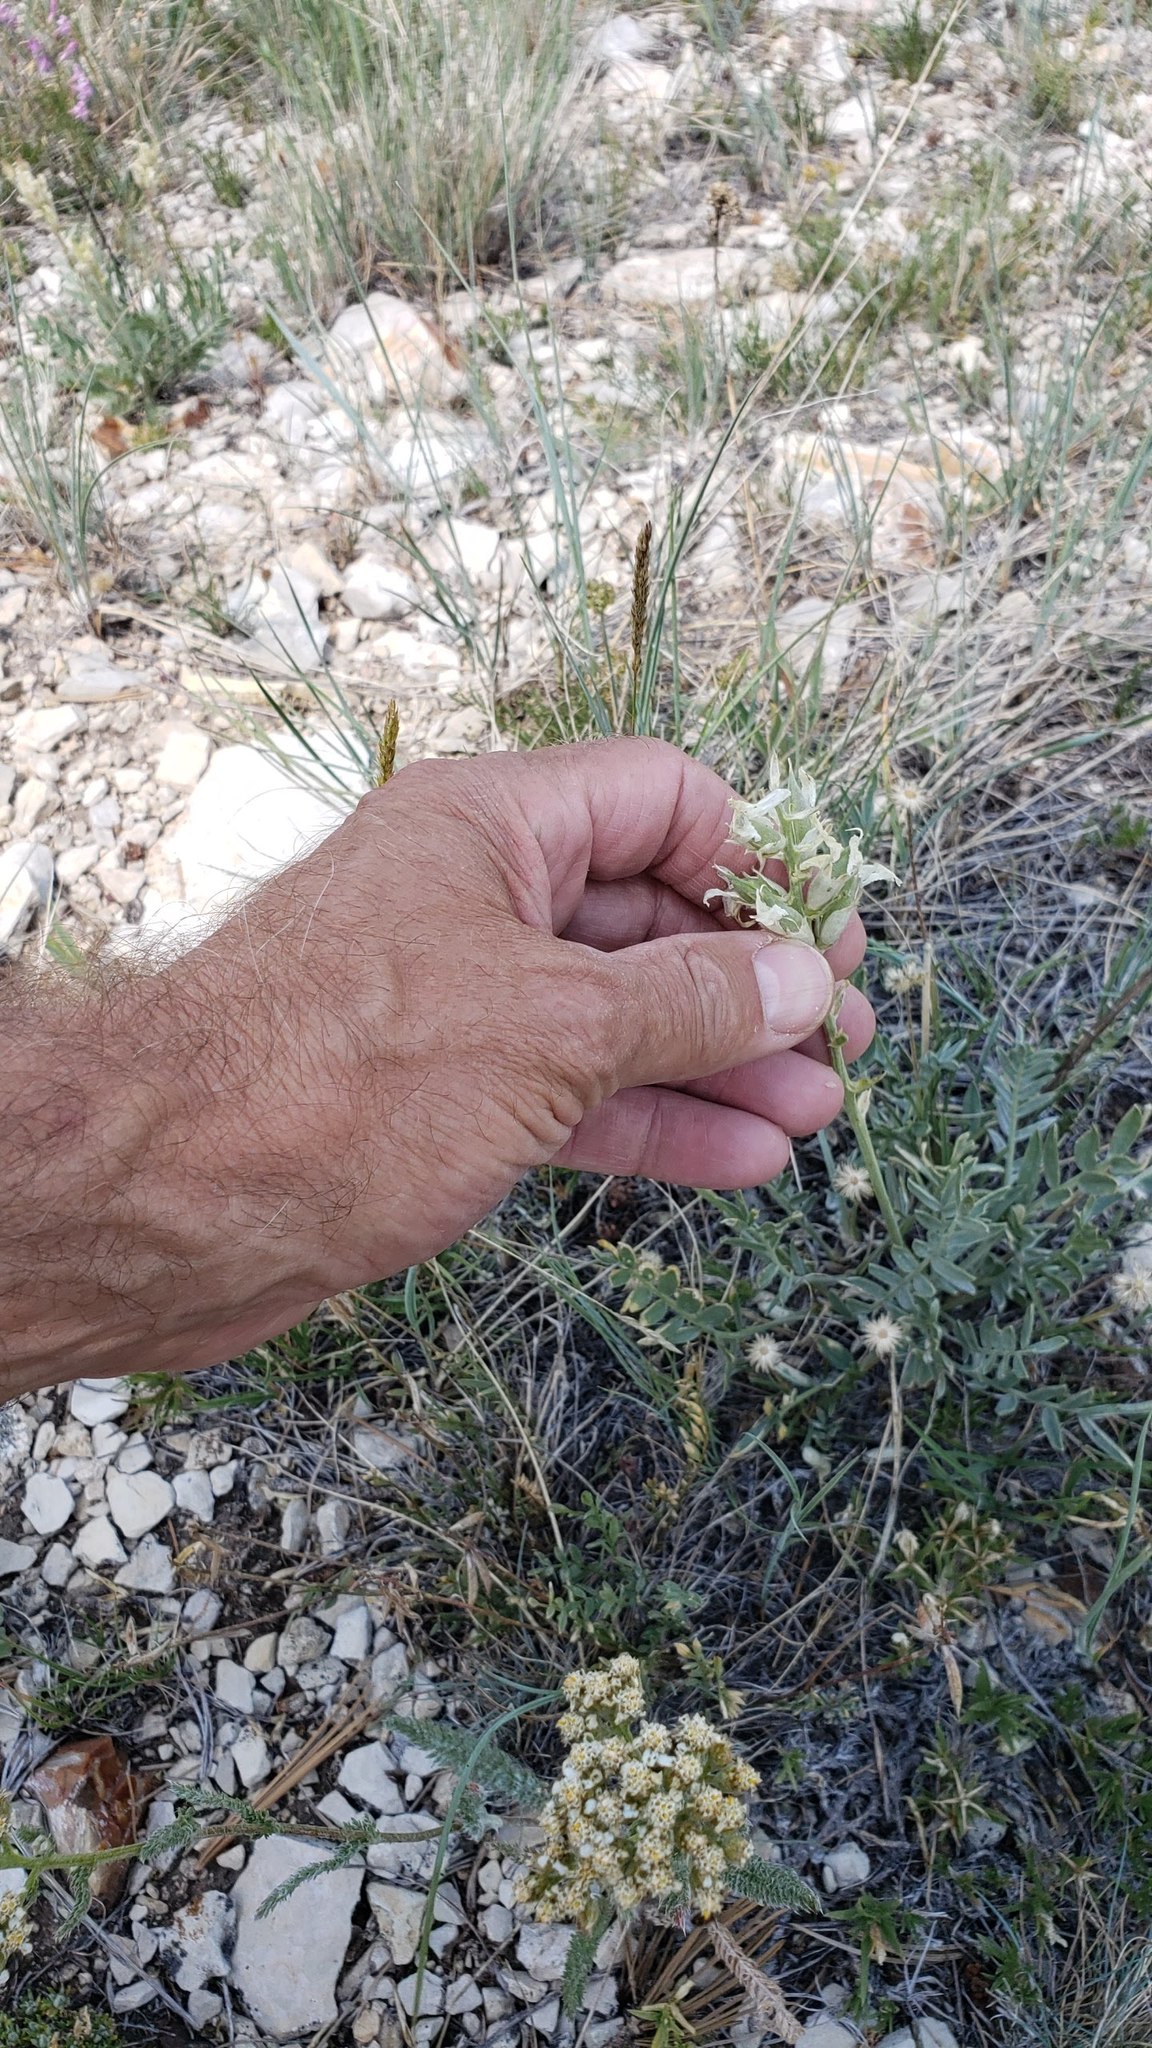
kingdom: Plantae
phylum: Tracheophyta
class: Magnoliopsida
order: Fabales
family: Fabaceae
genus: Oxytropis
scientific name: Oxytropis sericea
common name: Silky locoweed
